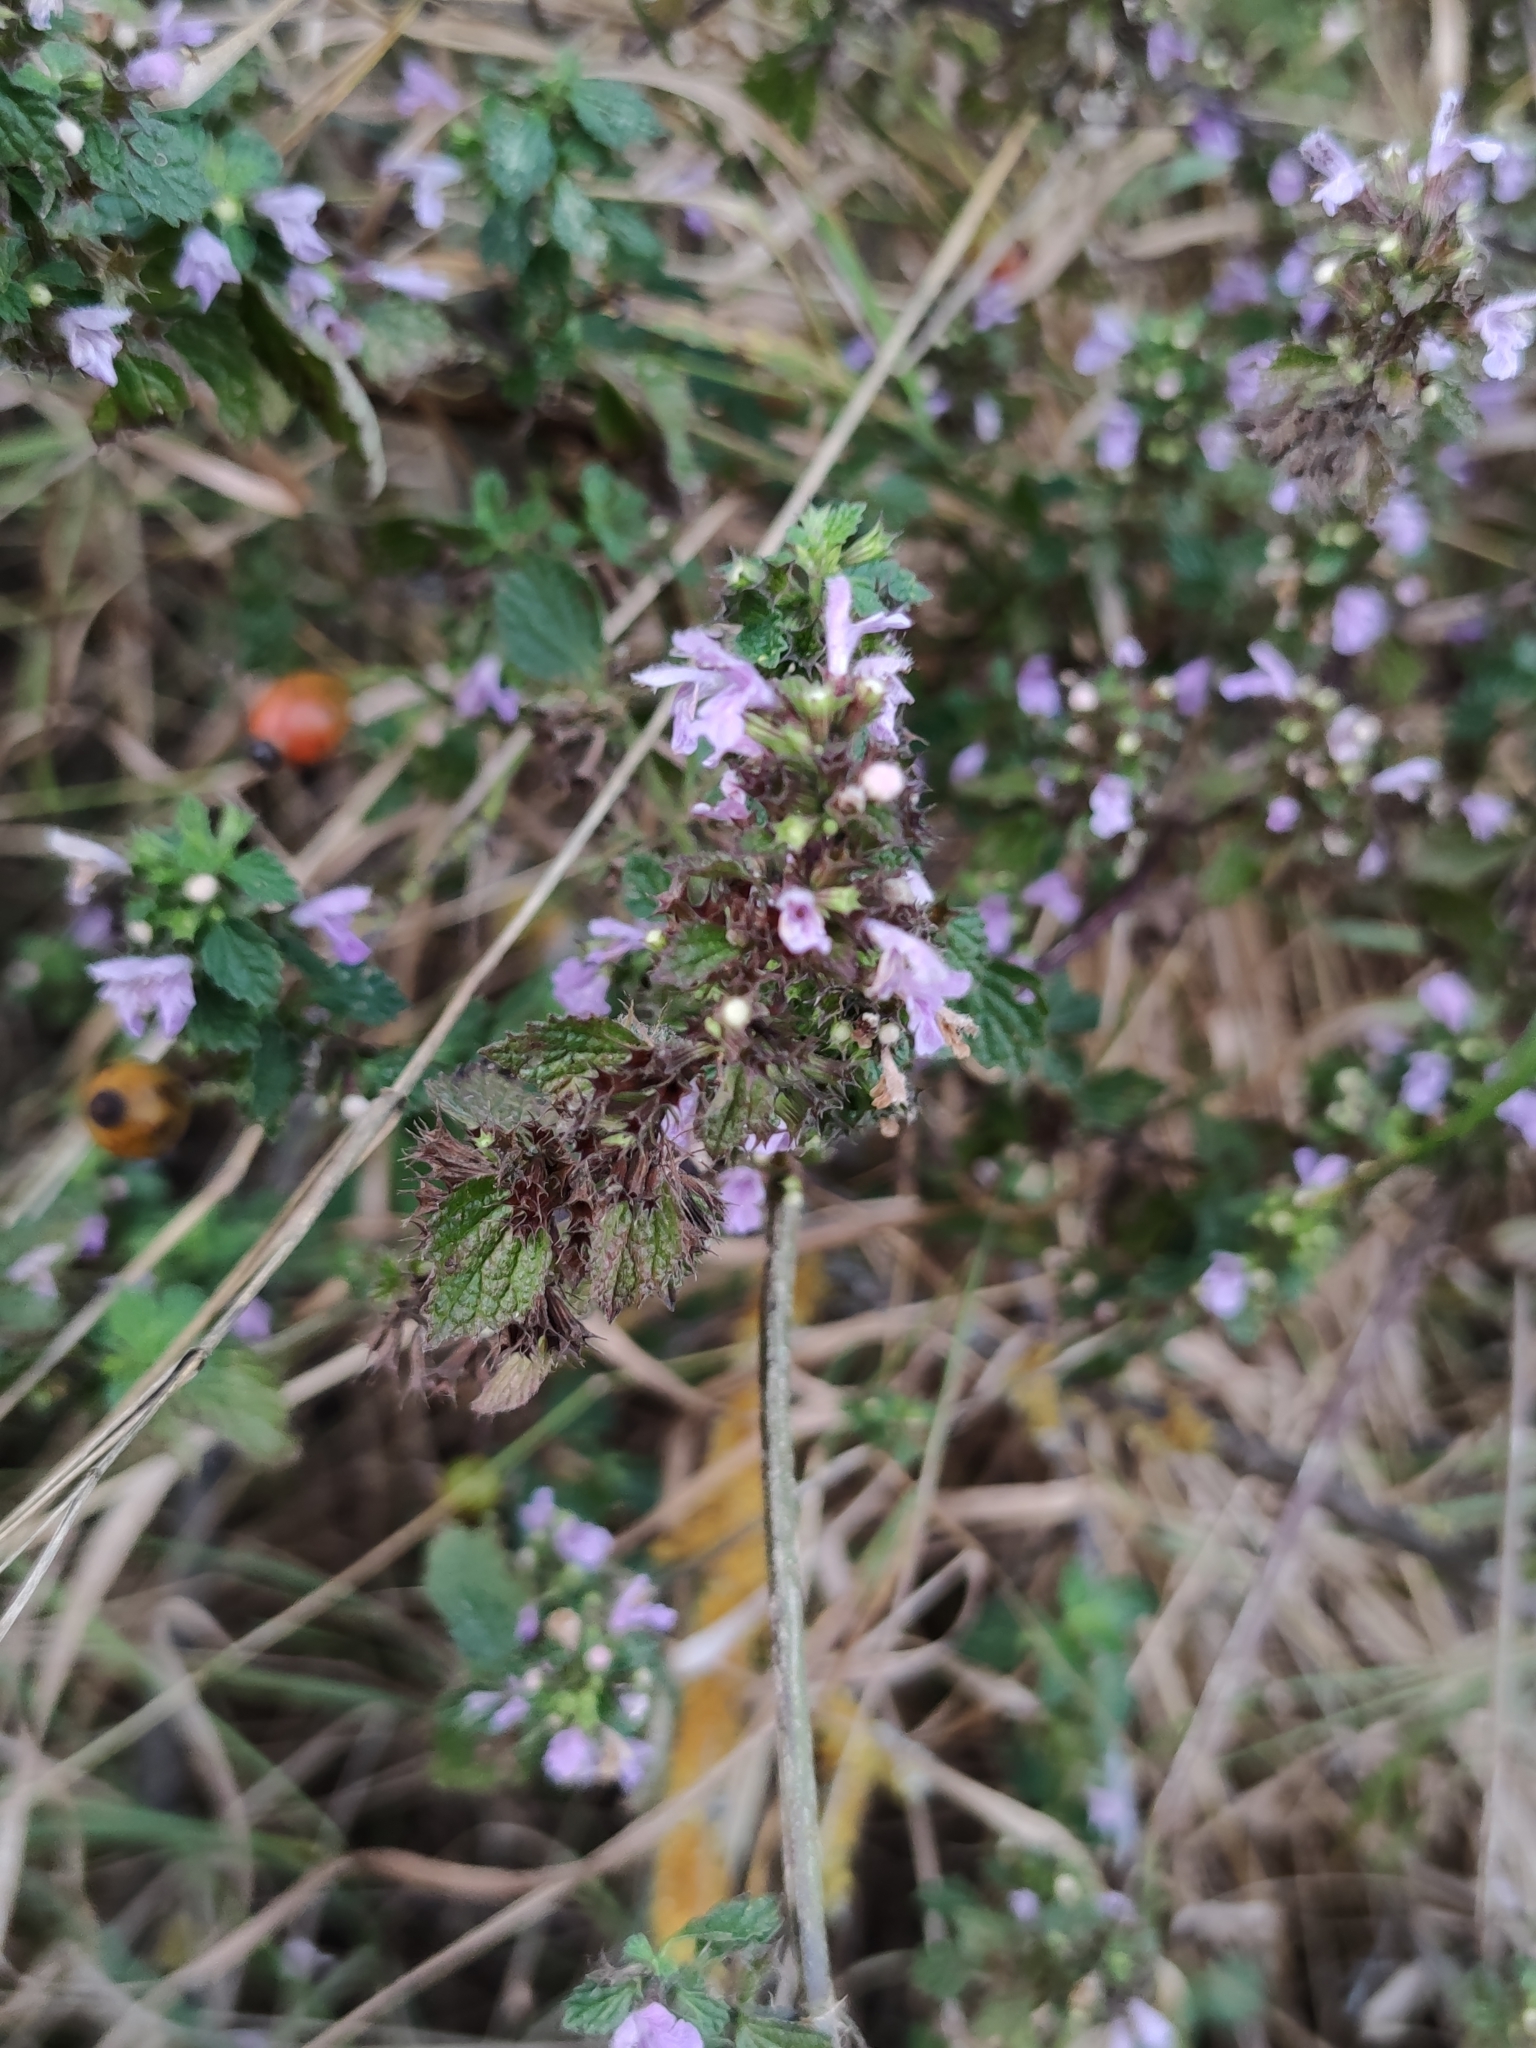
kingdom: Plantae
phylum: Tracheophyta
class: Magnoliopsida
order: Lamiales
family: Lamiaceae
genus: Ballota
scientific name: Ballota nigra
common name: Black horehound
